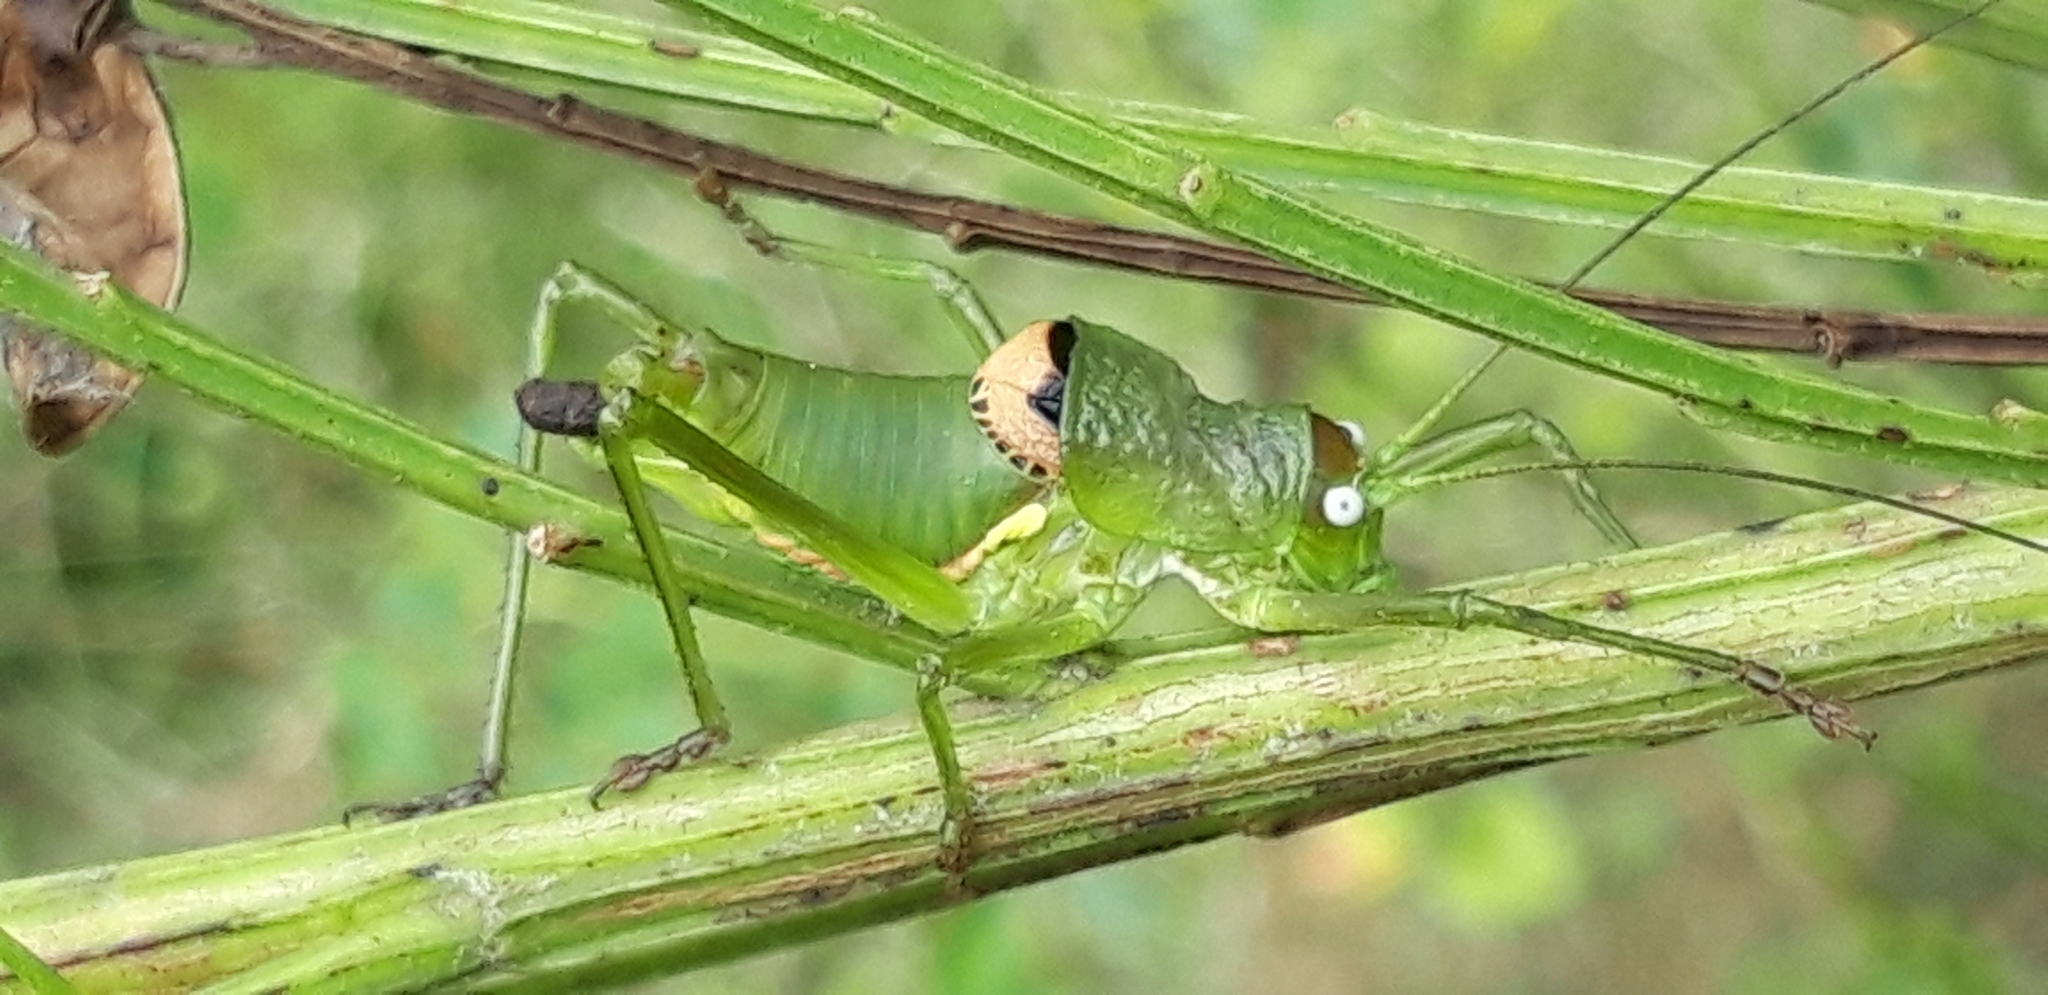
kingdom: Animalia
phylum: Arthropoda
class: Insecta
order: Orthoptera
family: Tettigoniidae
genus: Uromenus
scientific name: Uromenus rugosicollis
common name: Rough saddle bush-cricket
